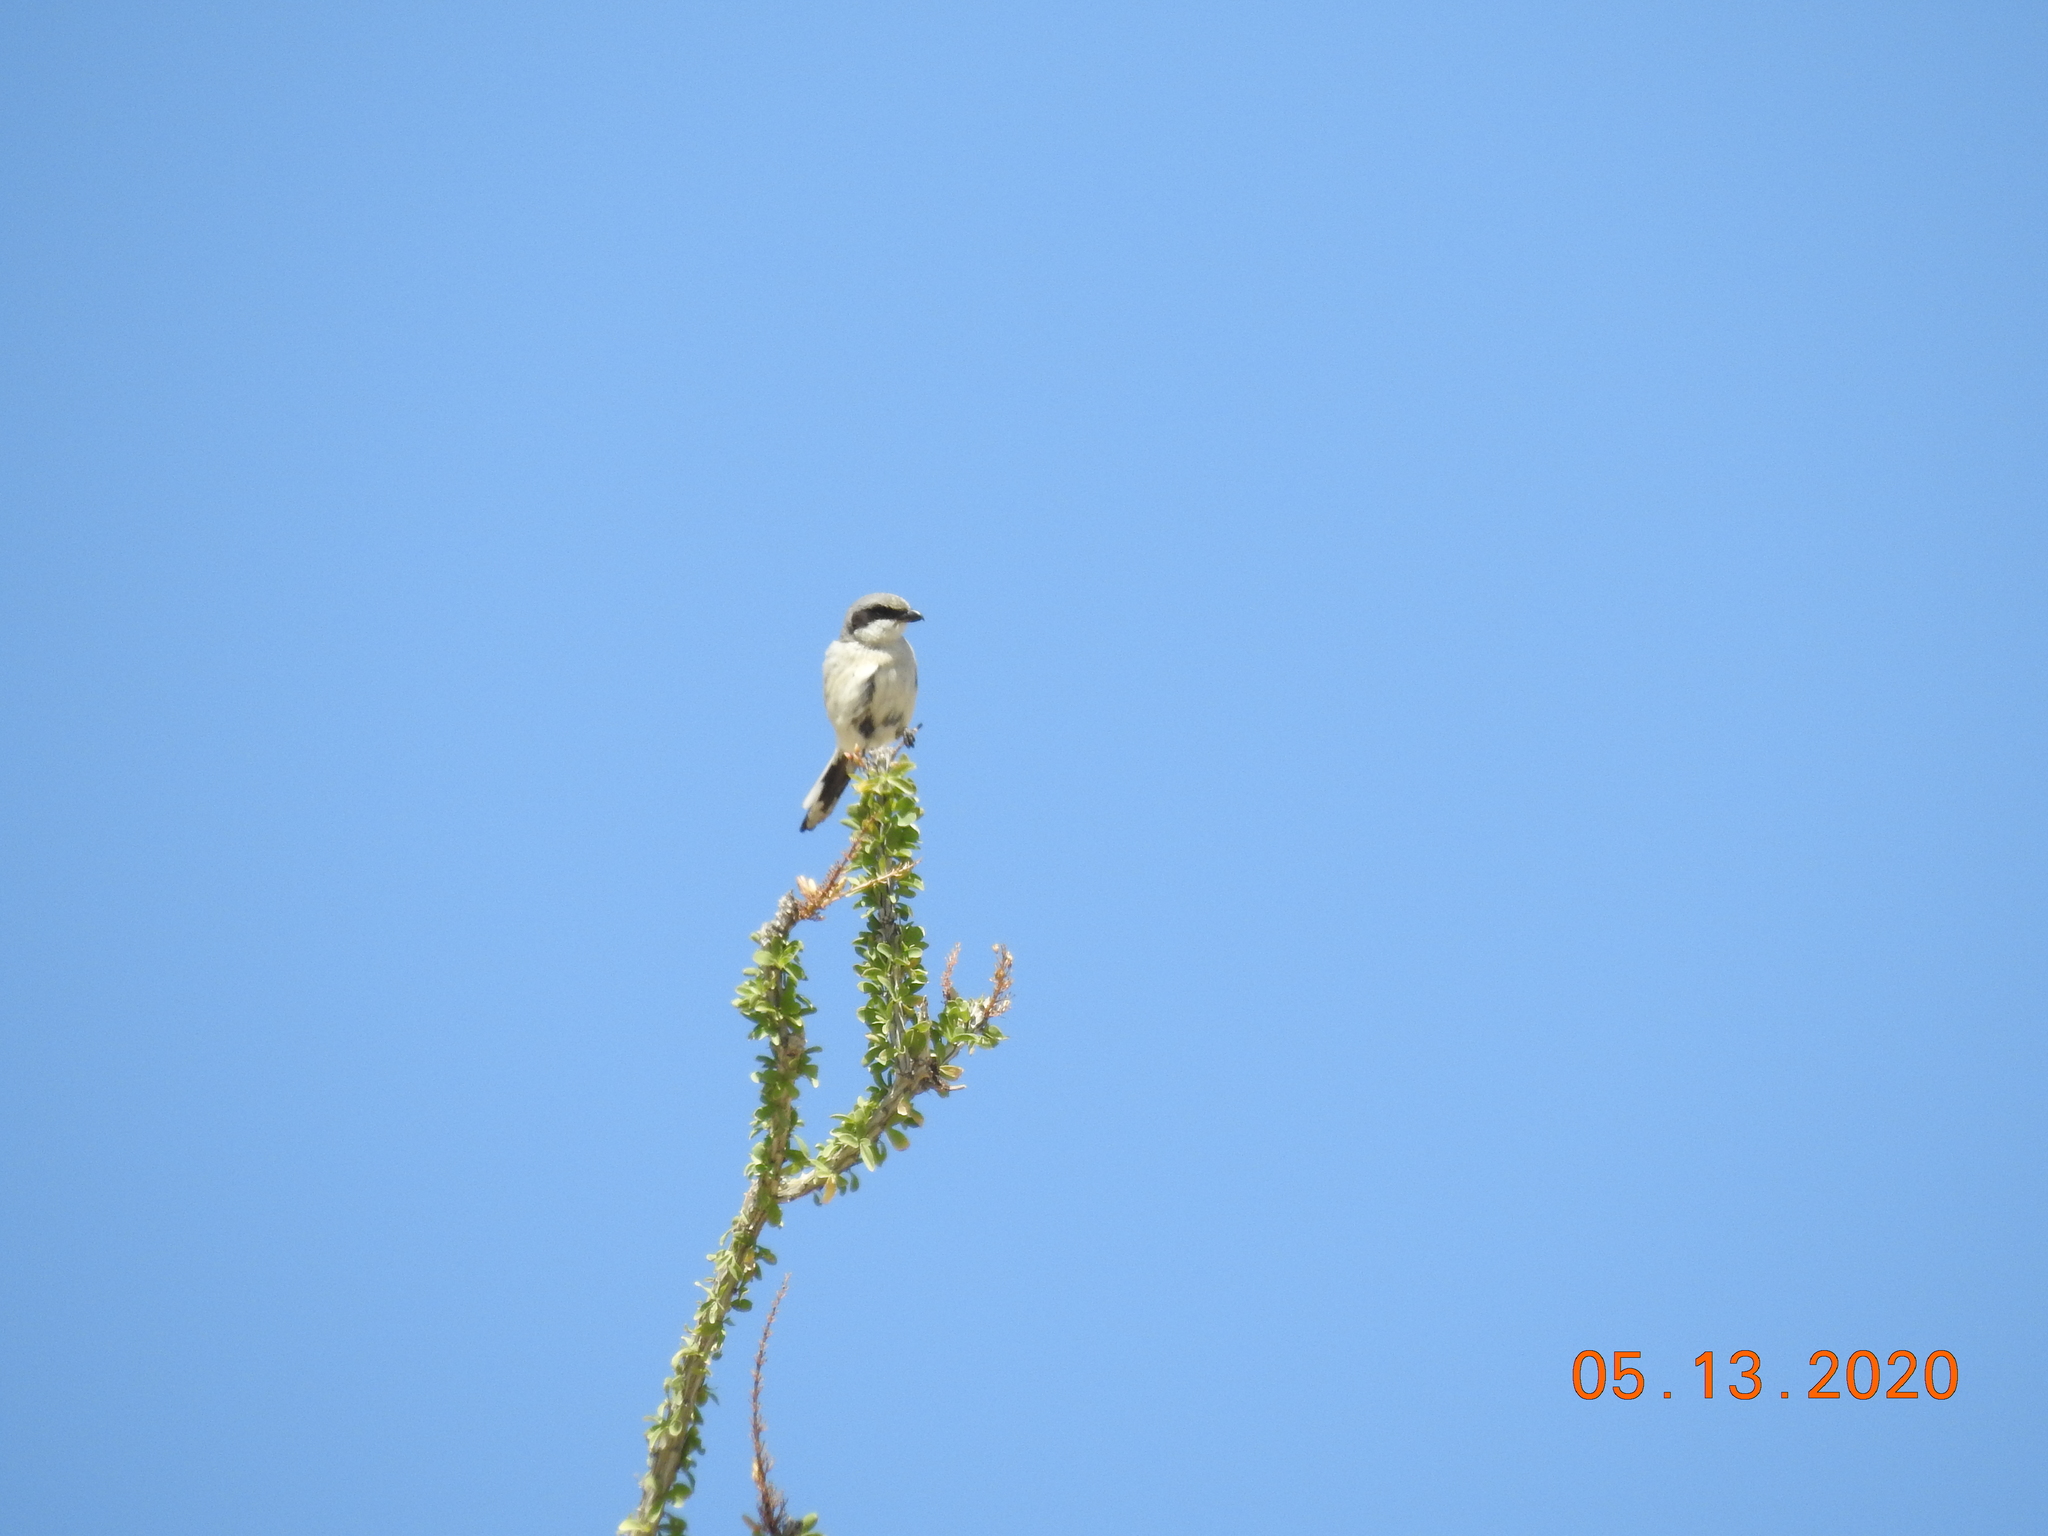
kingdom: Animalia
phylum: Chordata
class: Aves
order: Passeriformes
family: Laniidae
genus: Lanius
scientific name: Lanius ludovicianus
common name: Loggerhead shrike
